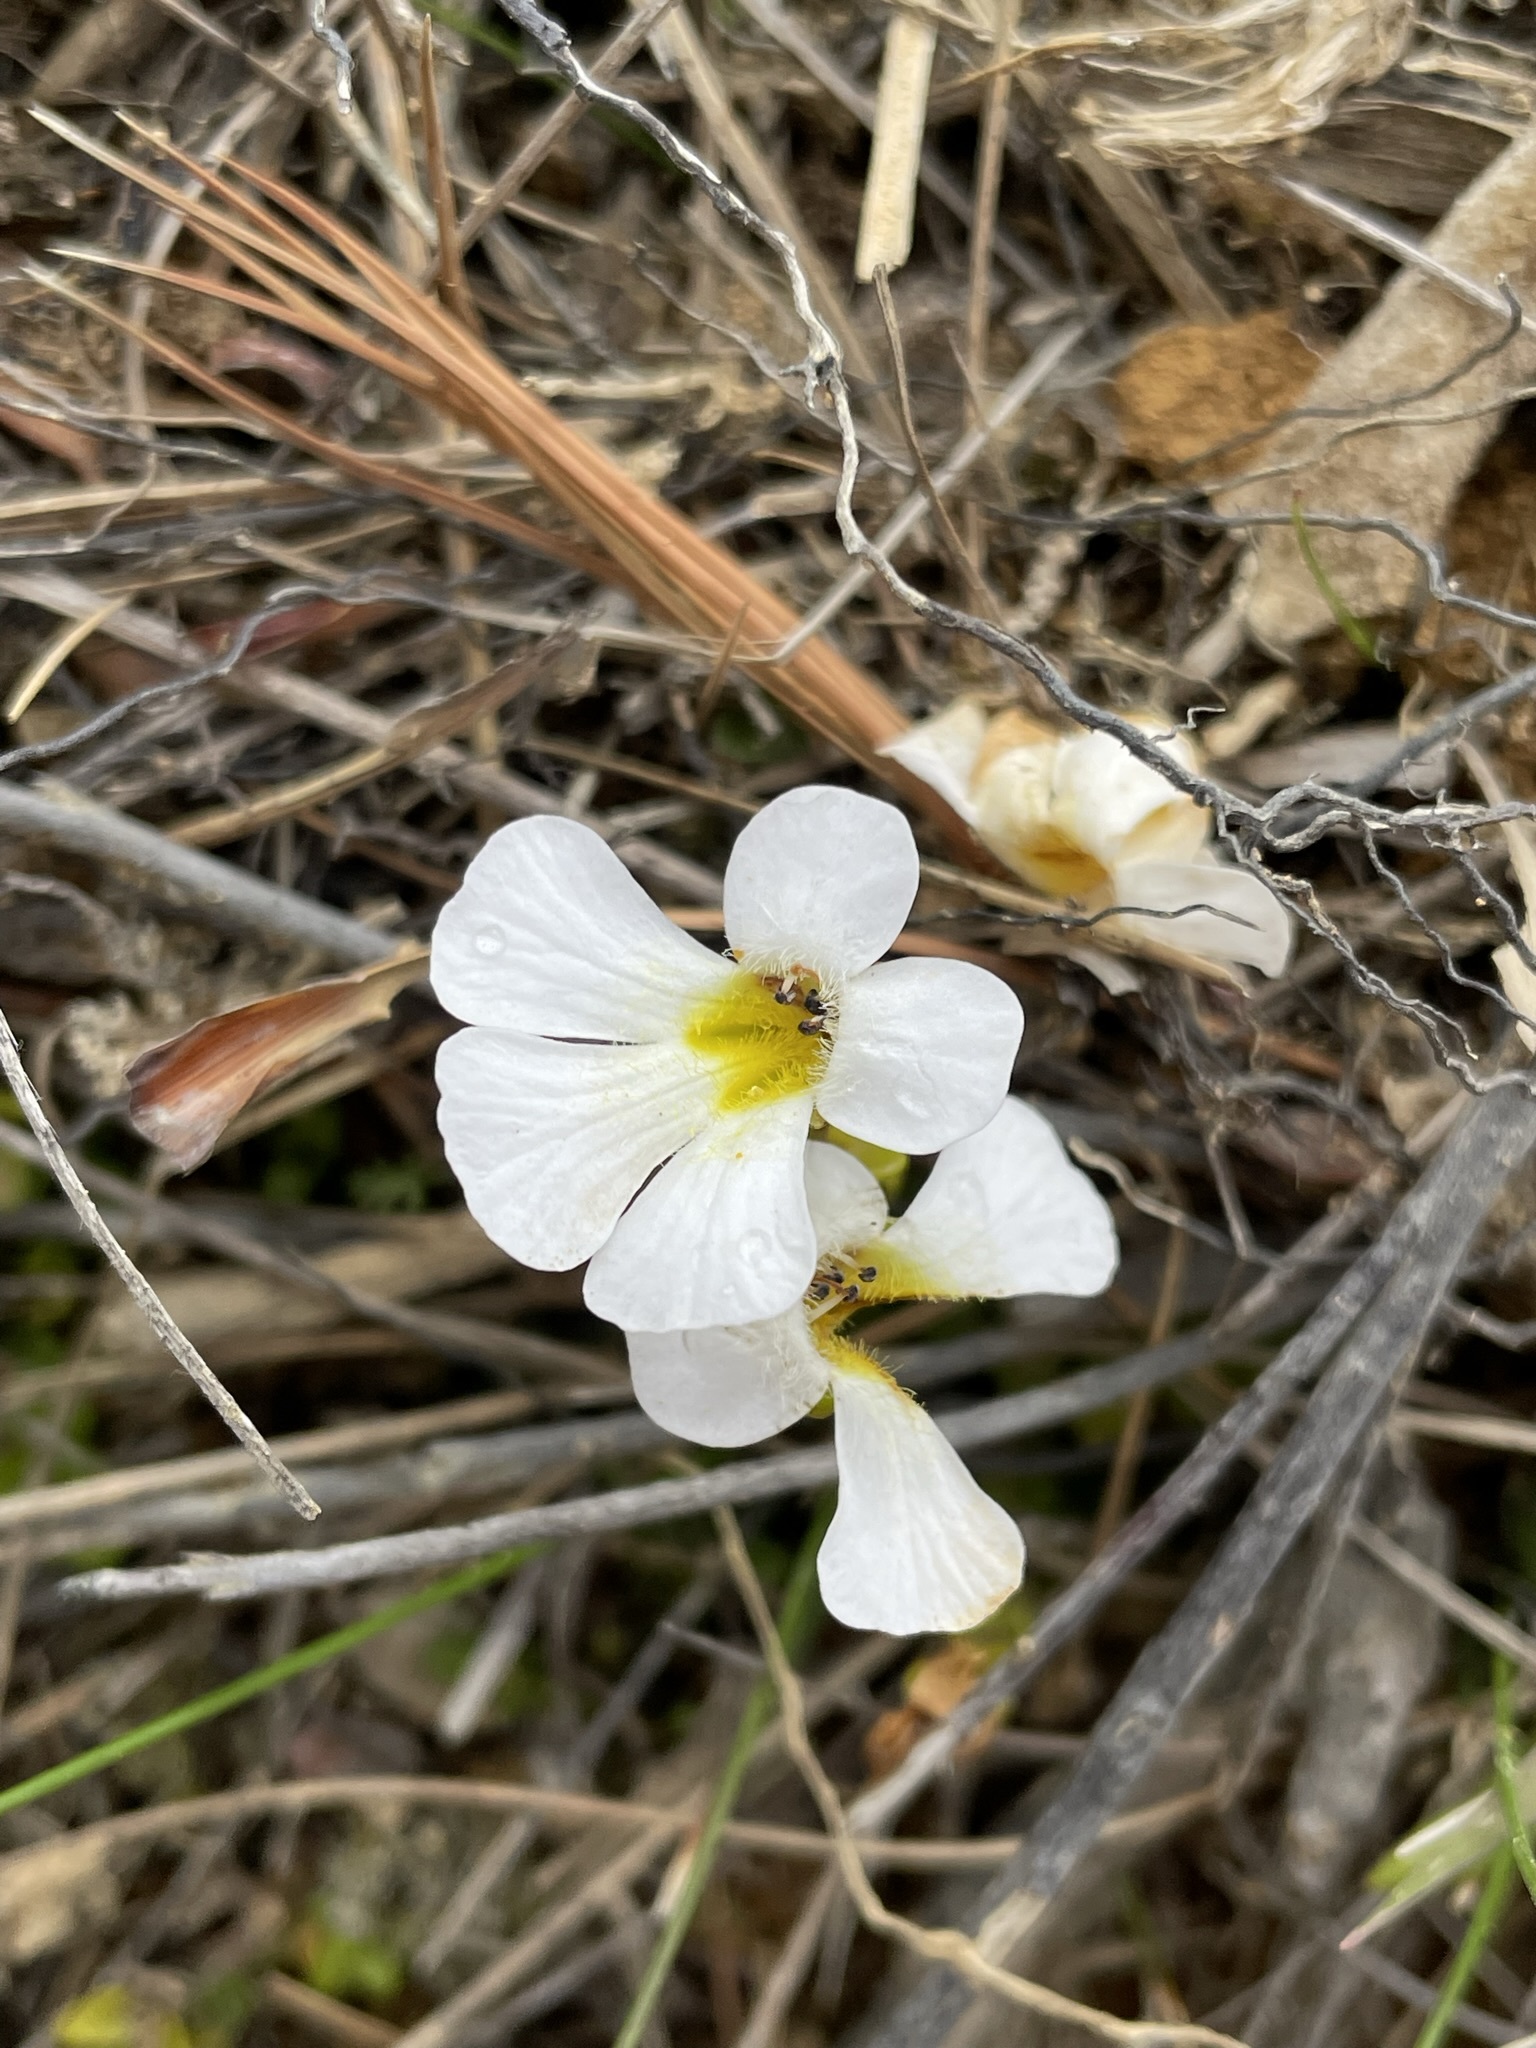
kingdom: Plantae
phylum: Tracheophyta
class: Magnoliopsida
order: Lamiales
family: Plantaginaceae
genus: Ourisia
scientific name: Ourisia caespitosa
